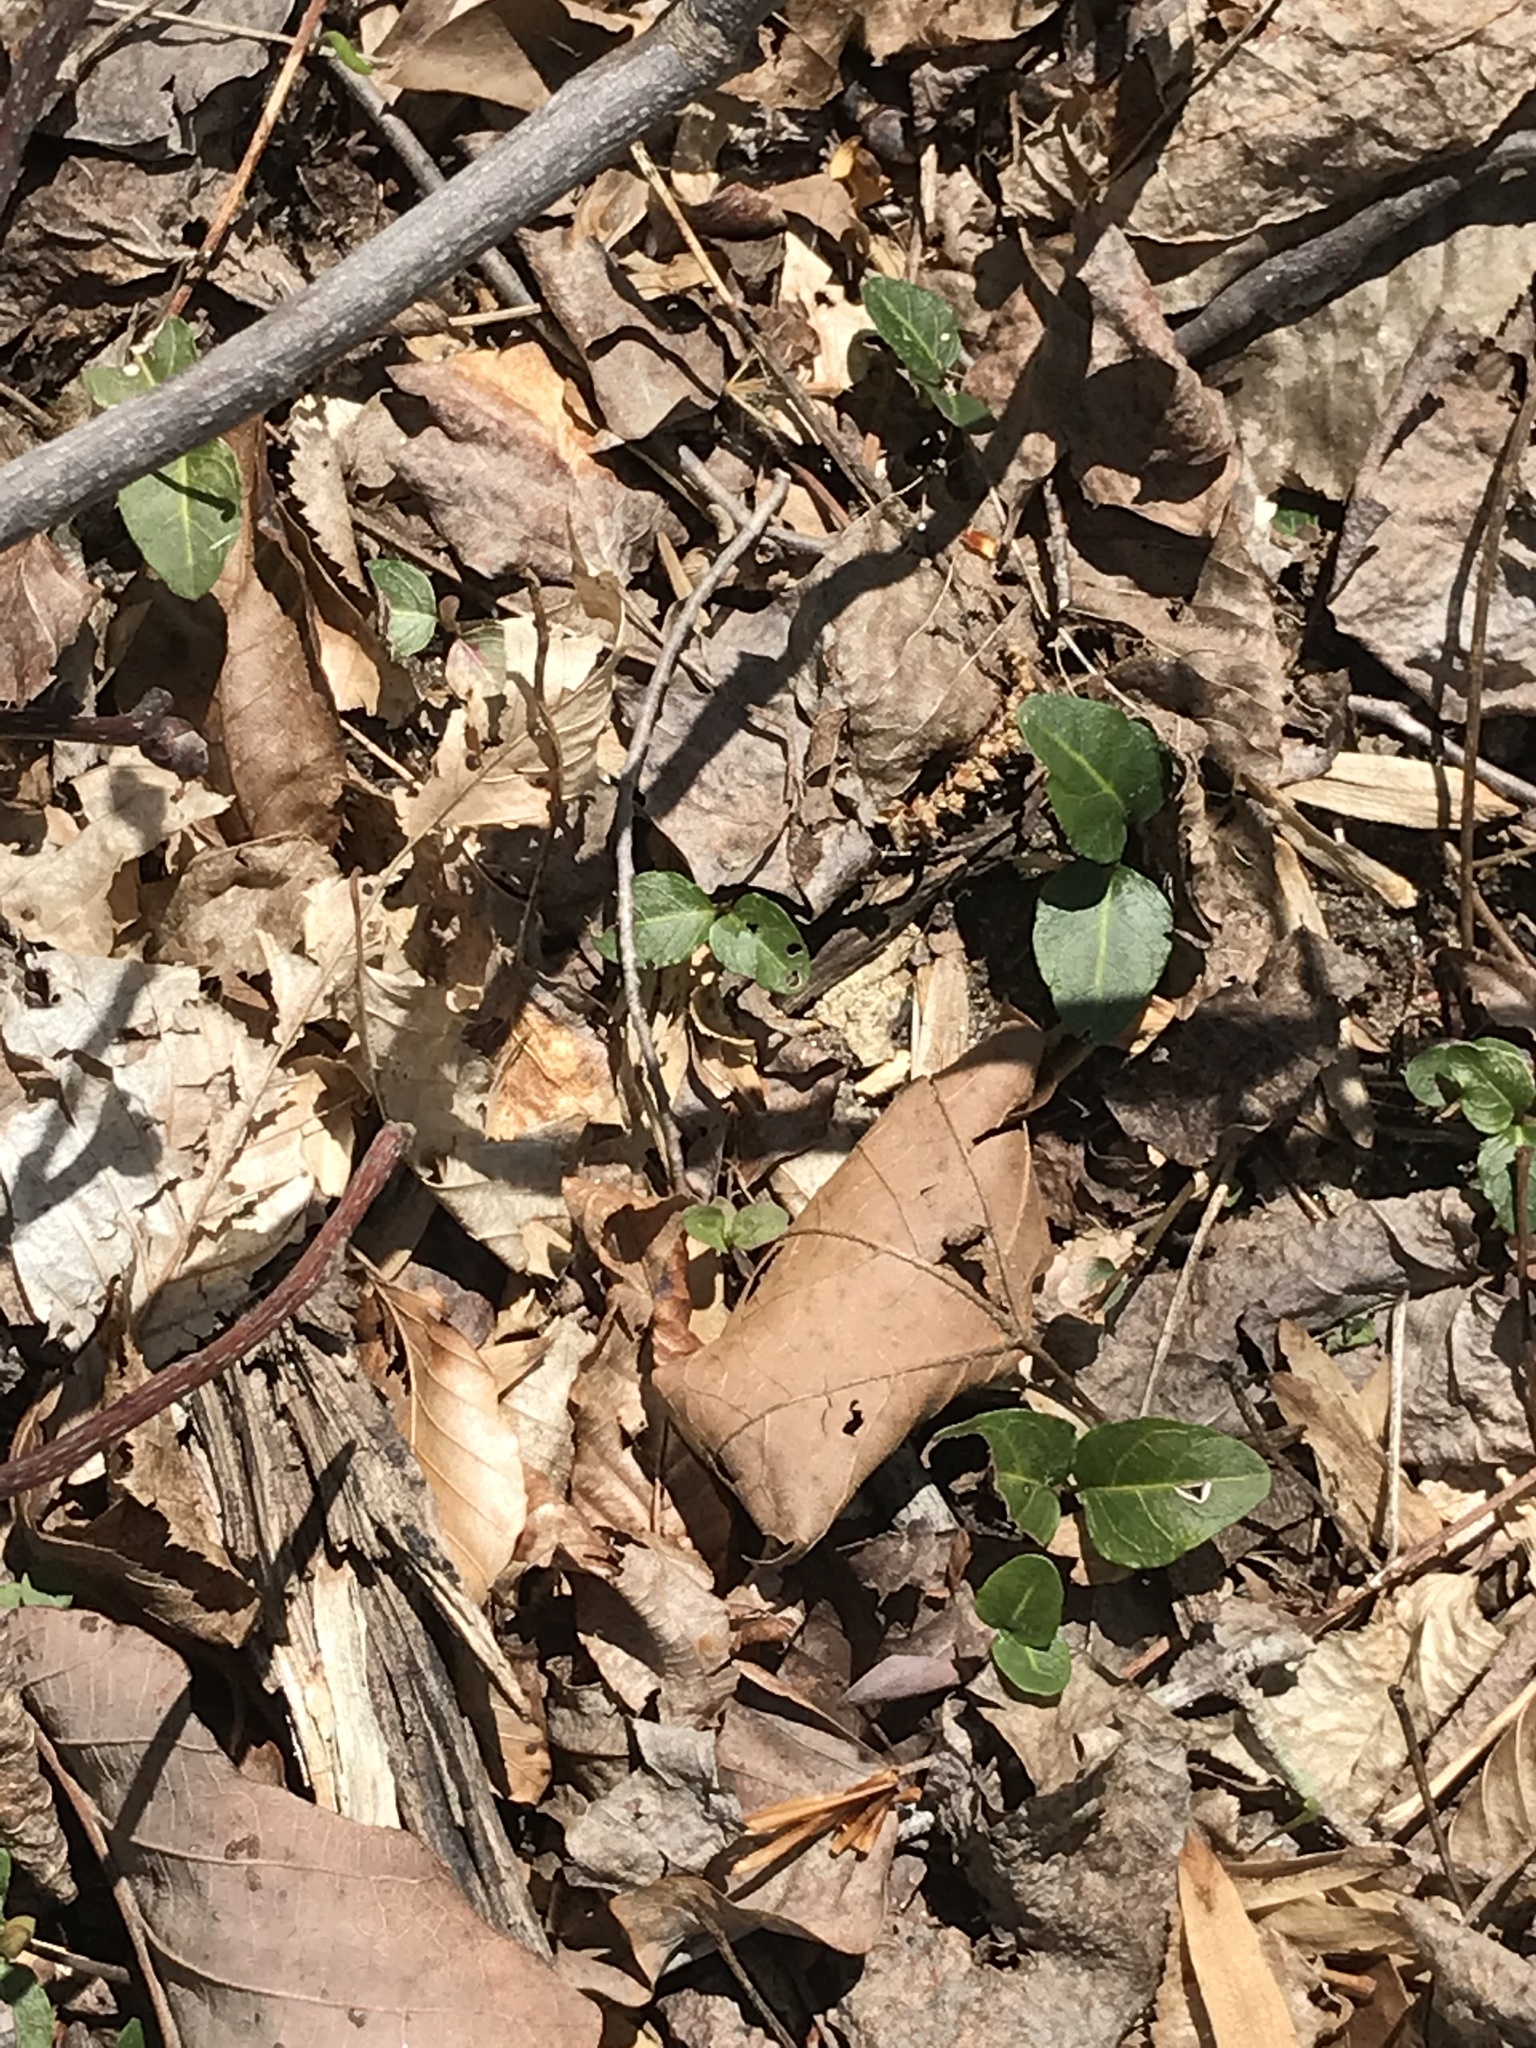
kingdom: Plantae
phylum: Tracheophyta
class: Magnoliopsida
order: Gentianales
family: Rubiaceae
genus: Mitchella
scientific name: Mitchella repens
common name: Partridge-berry
